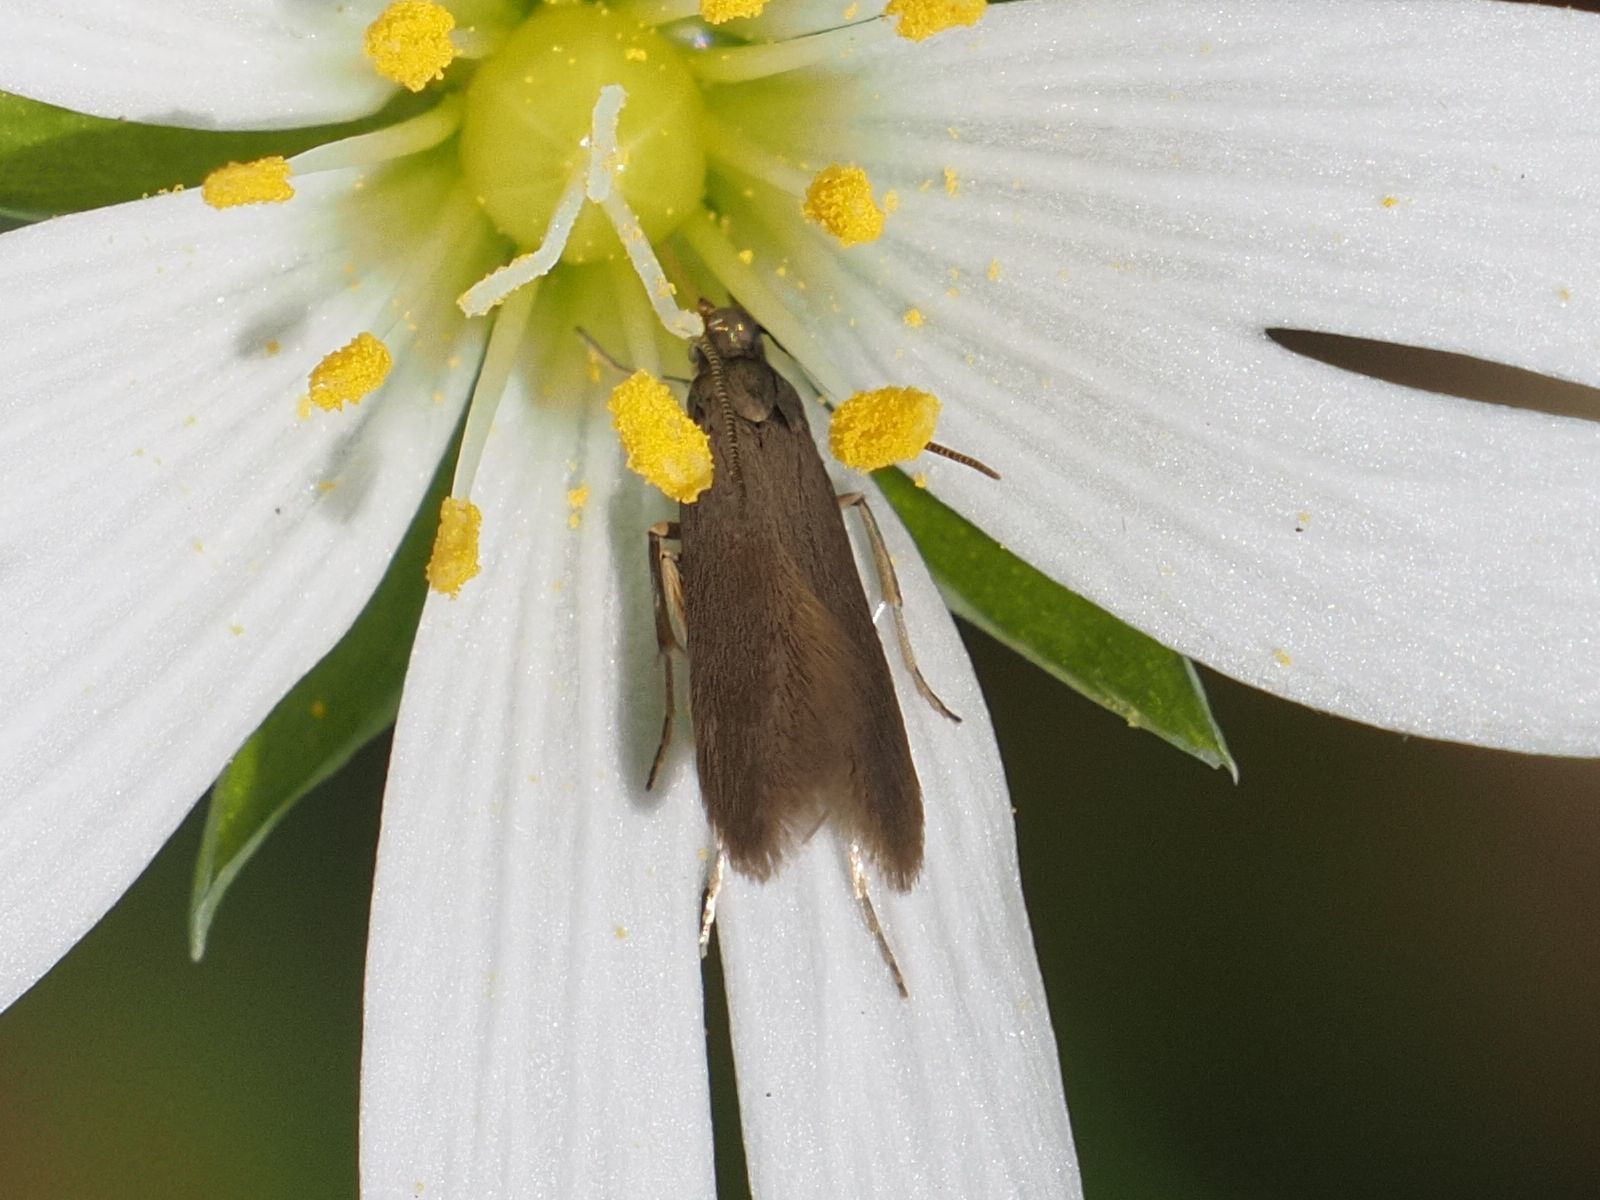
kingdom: Animalia
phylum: Arthropoda
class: Insecta
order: Lepidoptera
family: Coleophoridae
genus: Metriotes
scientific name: Metriotes lutarea
